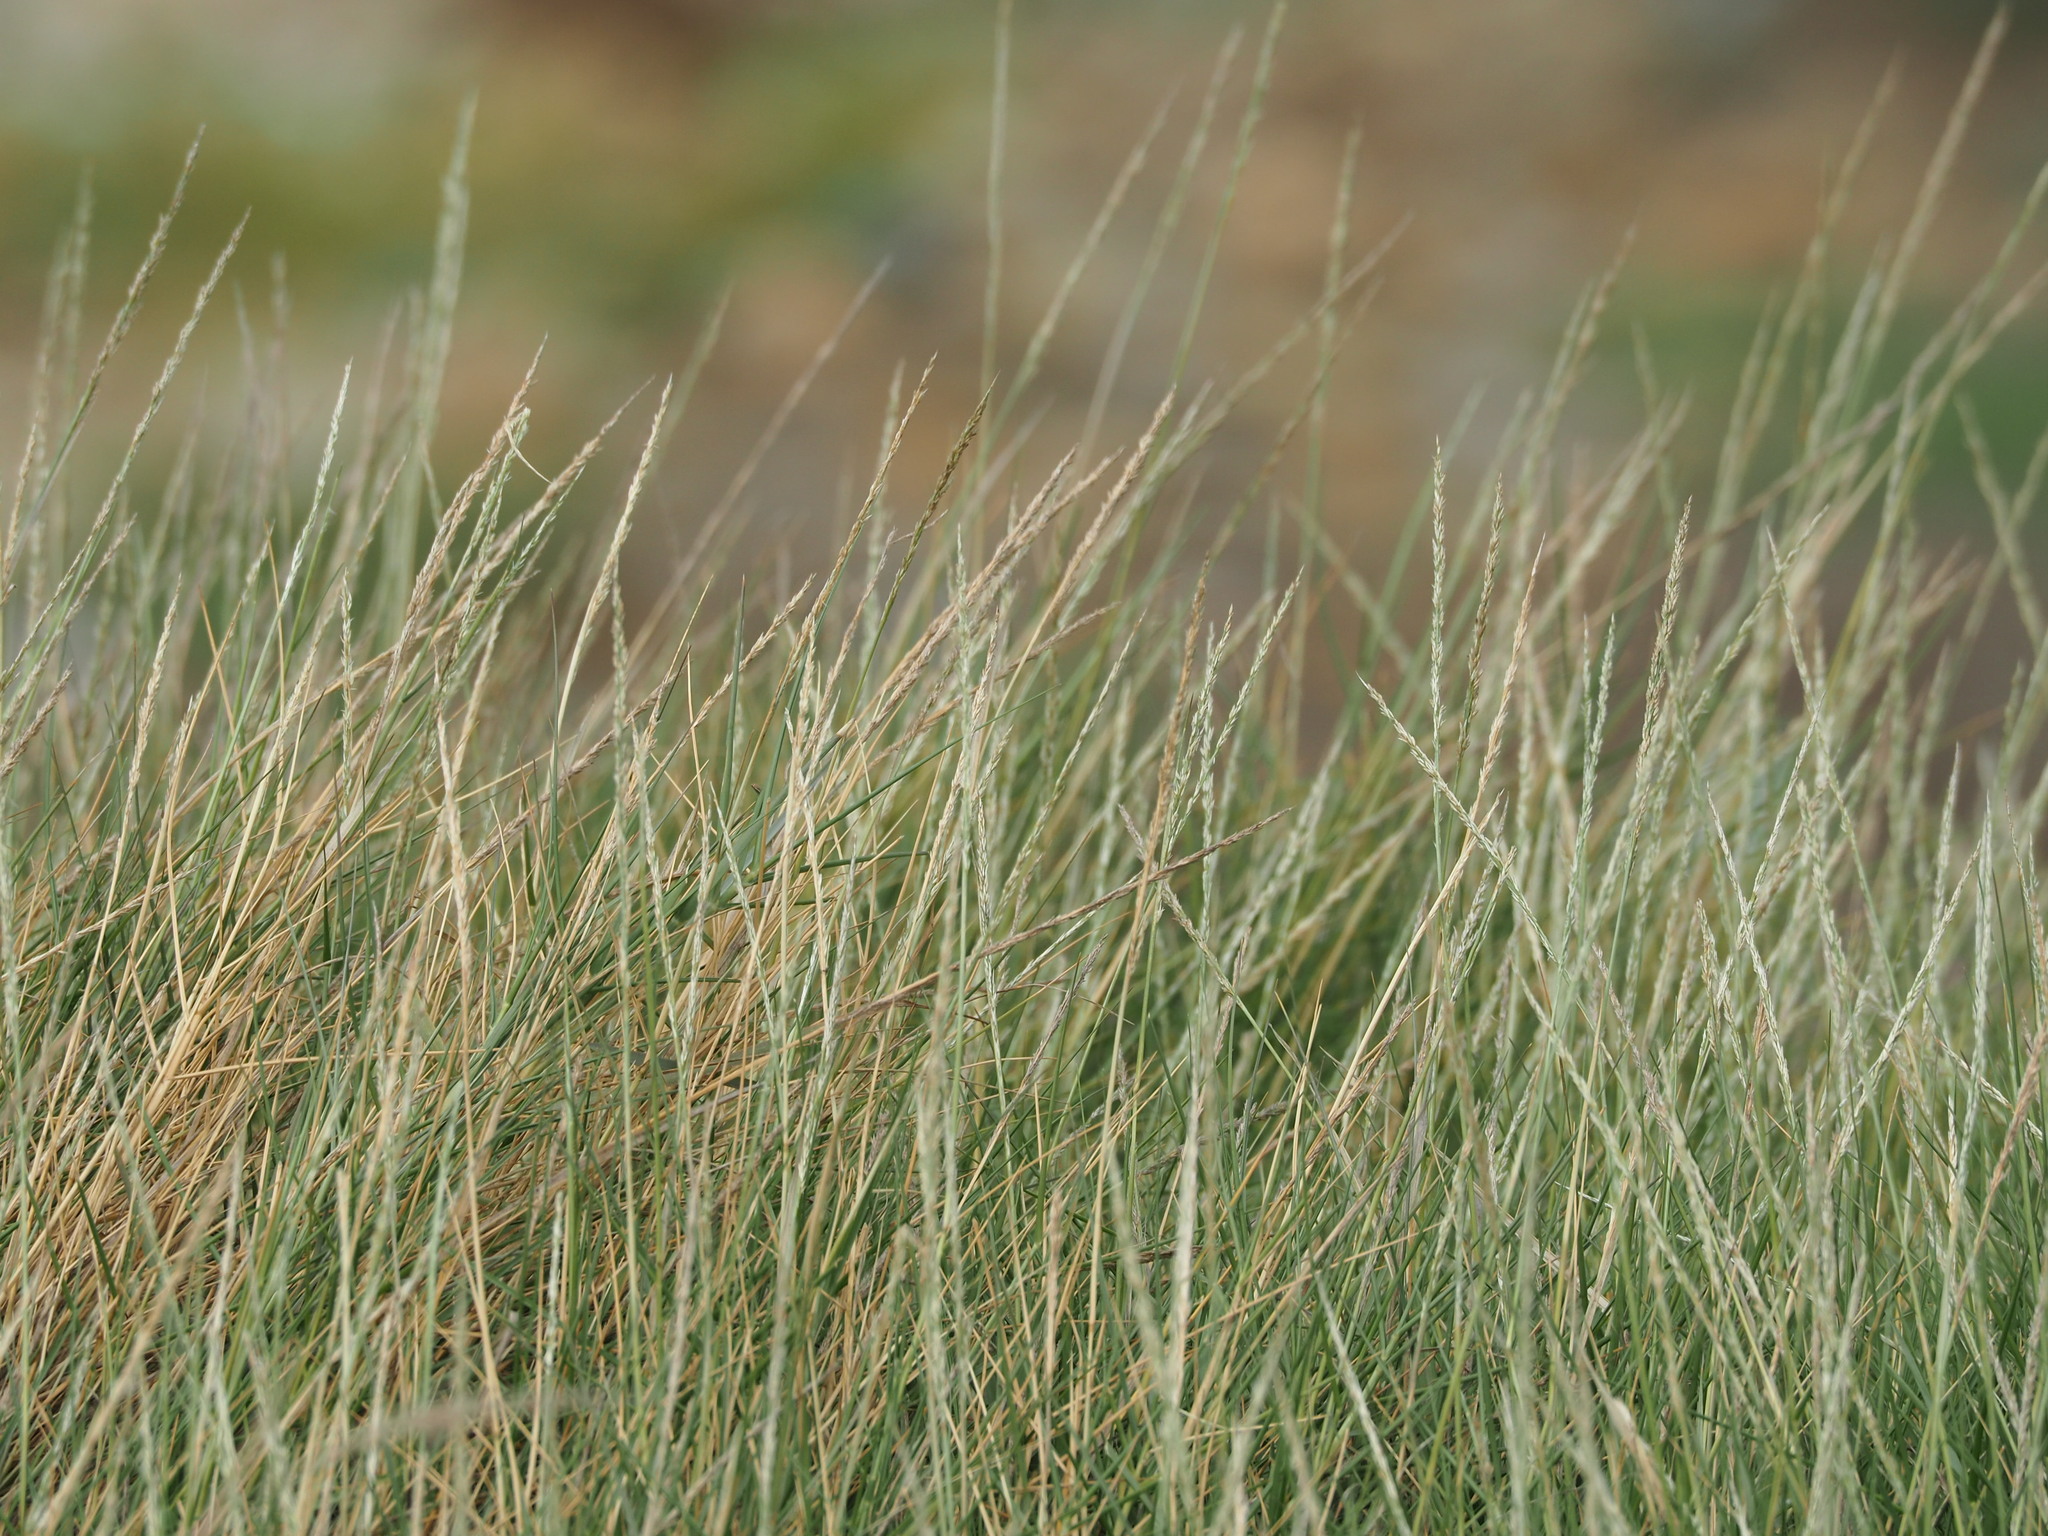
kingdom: Plantae
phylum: Tracheophyta
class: Liliopsida
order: Poales
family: Poaceae
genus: Sporobolus
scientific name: Sporobolus virginicus
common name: Beach dropseed
